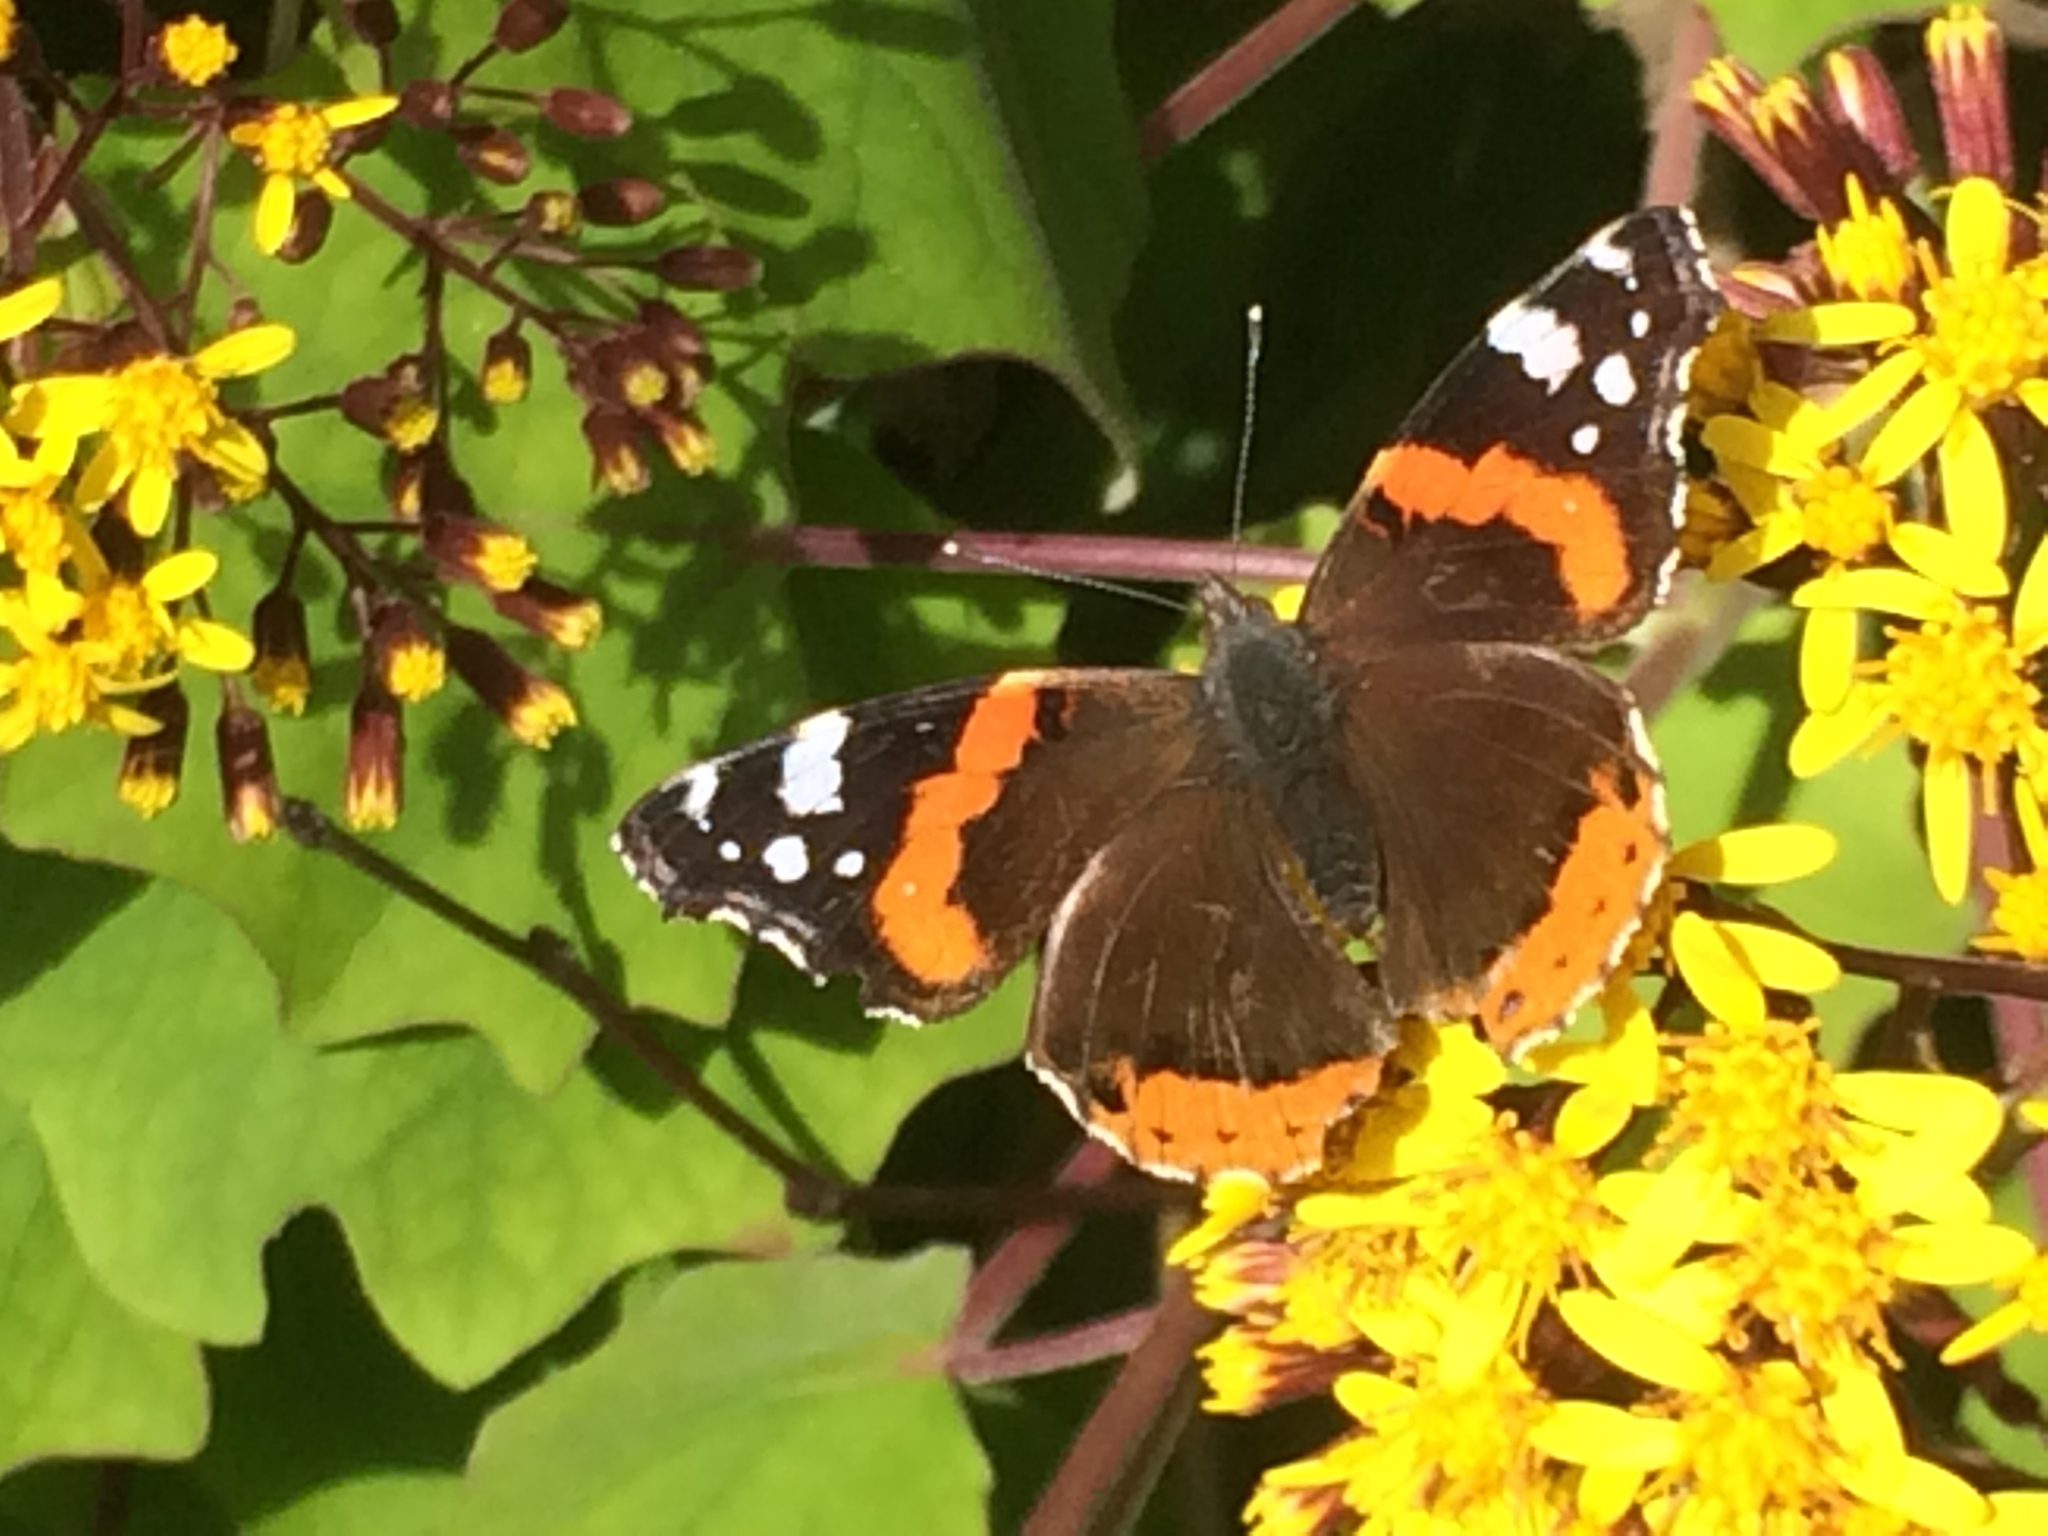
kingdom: Animalia
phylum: Arthropoda
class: Insecta
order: Lepidoptera
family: Nymphalidae
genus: Vanessa
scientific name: Vanessa atalanta
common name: Red admiral
